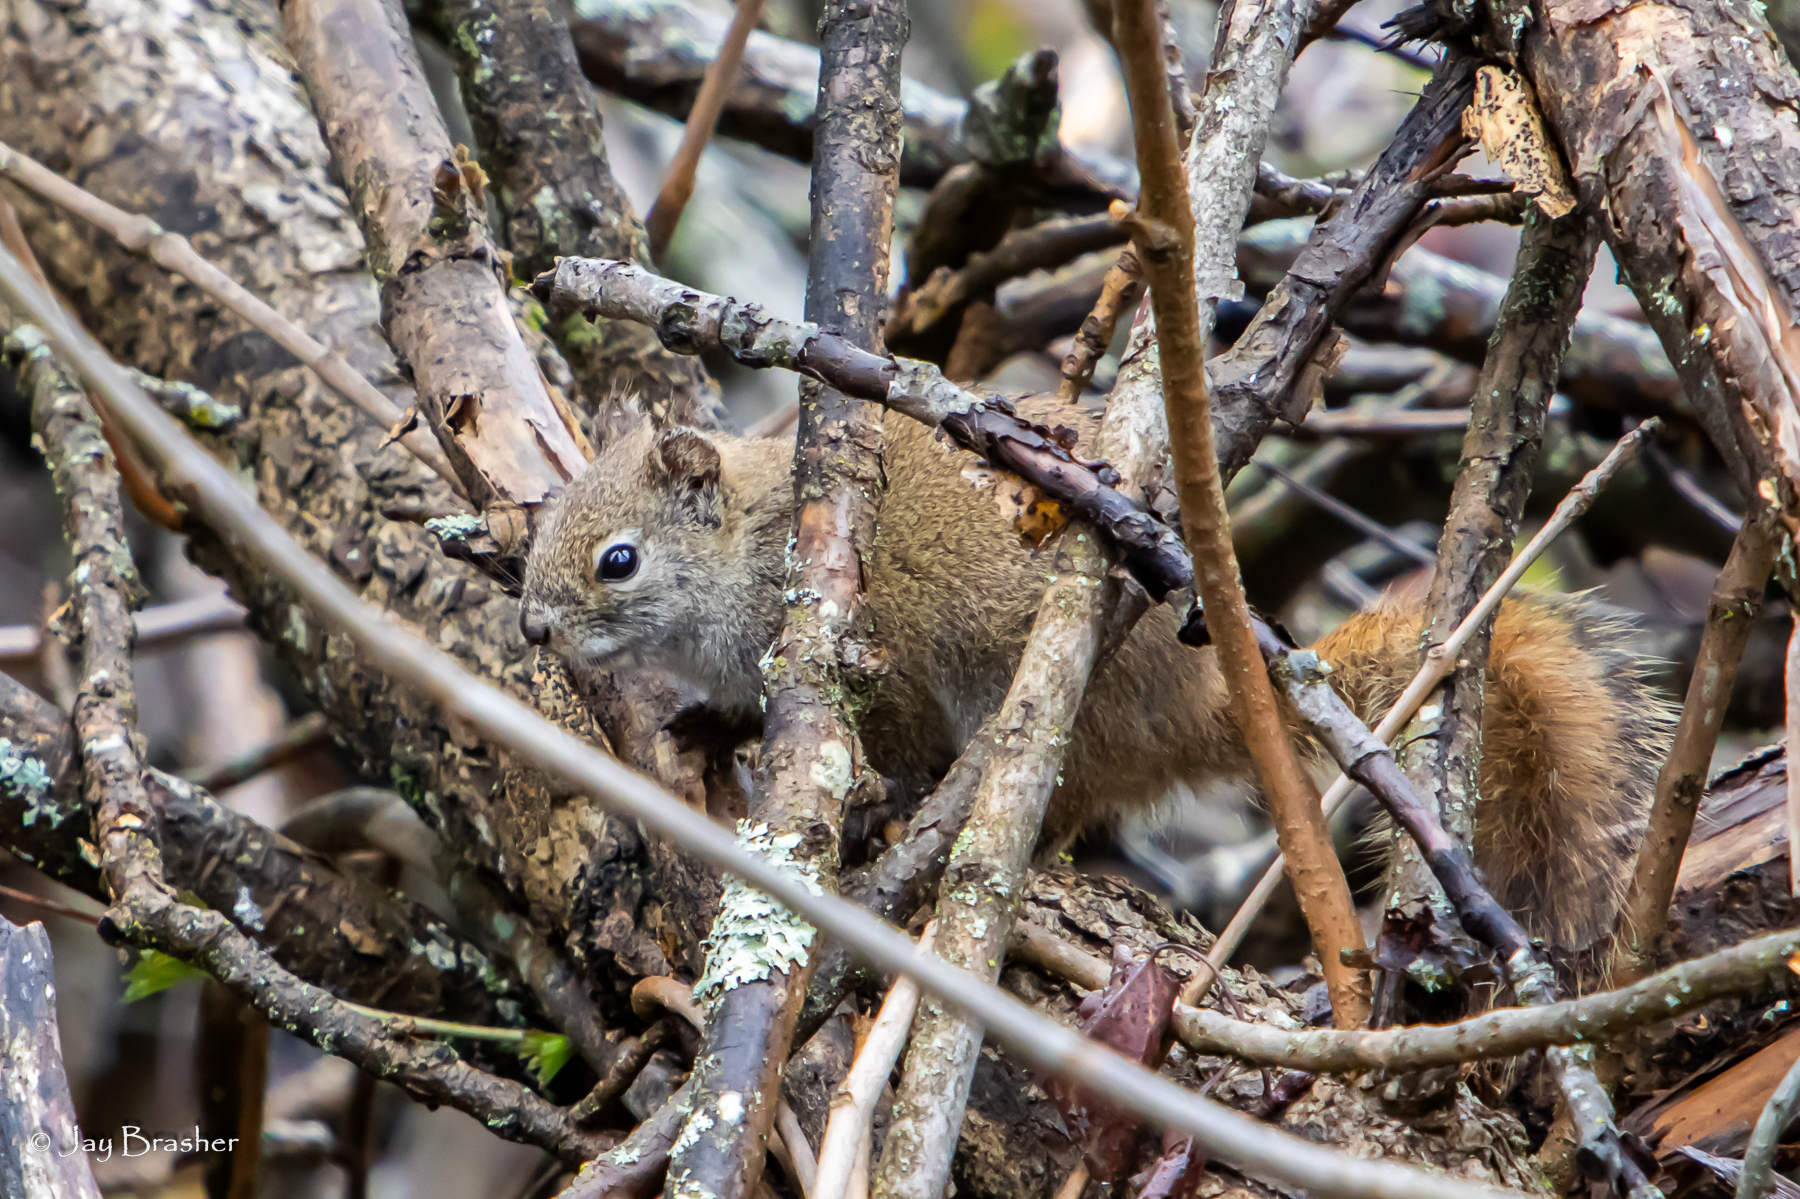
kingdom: Animalia
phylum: Chordata
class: Mammalia
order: Rodentia
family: Sciuridae
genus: Tamiasciurus
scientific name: Tamiasciurus hudsonicus
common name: Red squirrel
